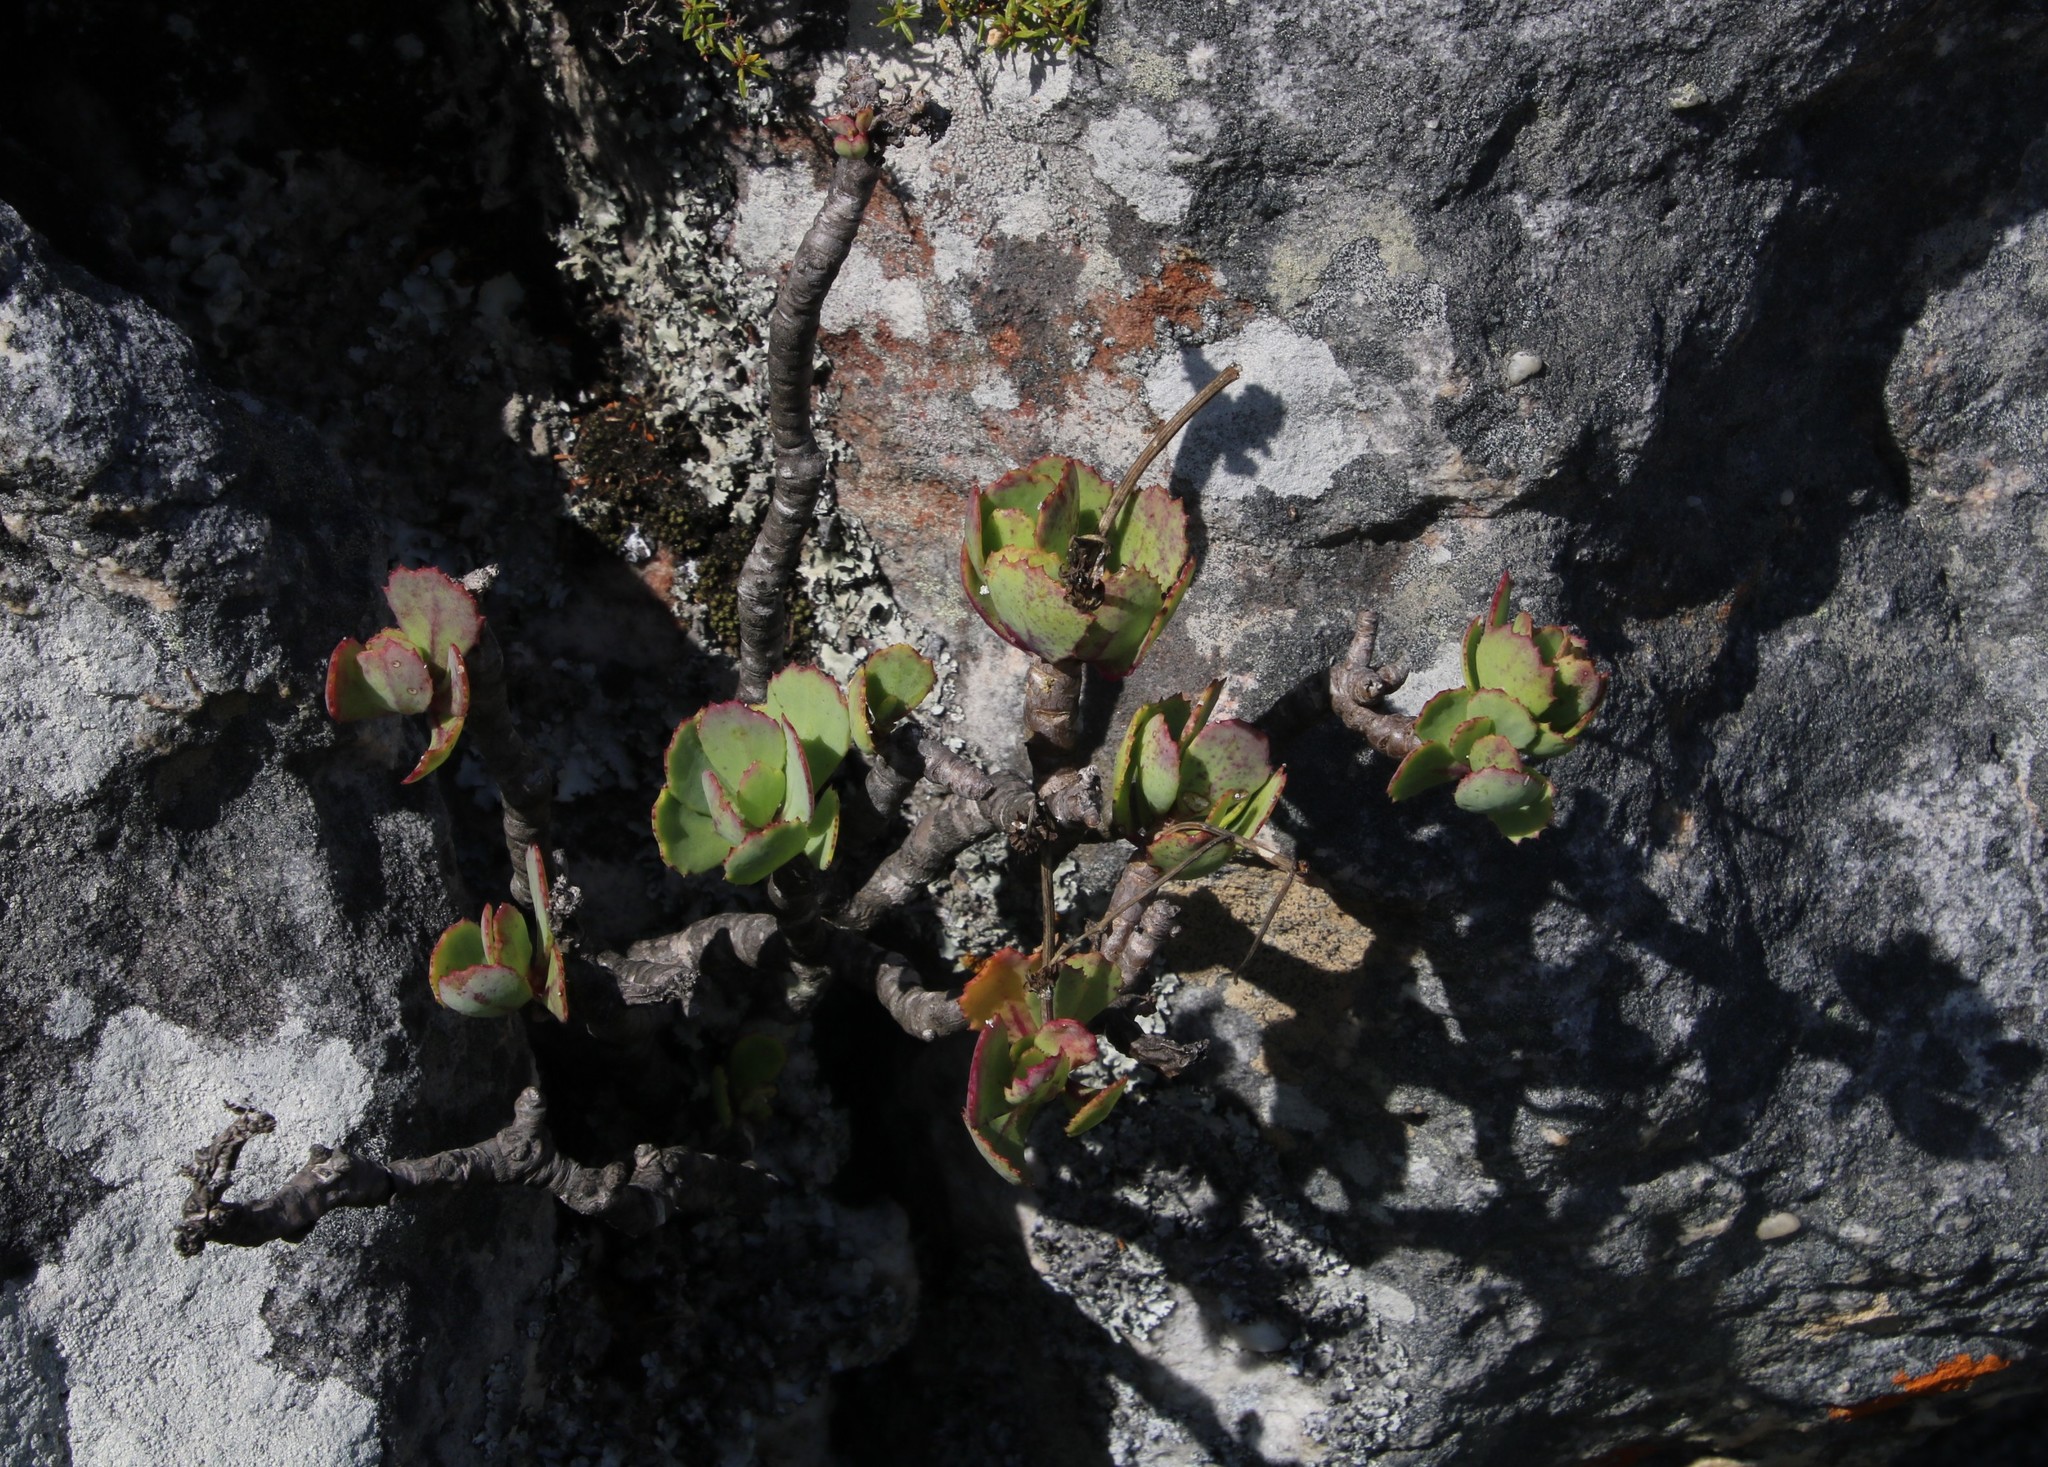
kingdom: Plantae
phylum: Tracheophyta
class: Magnoliopsida
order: Asterales
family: Asteraceae
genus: Othonna
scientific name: Othonna dentata
